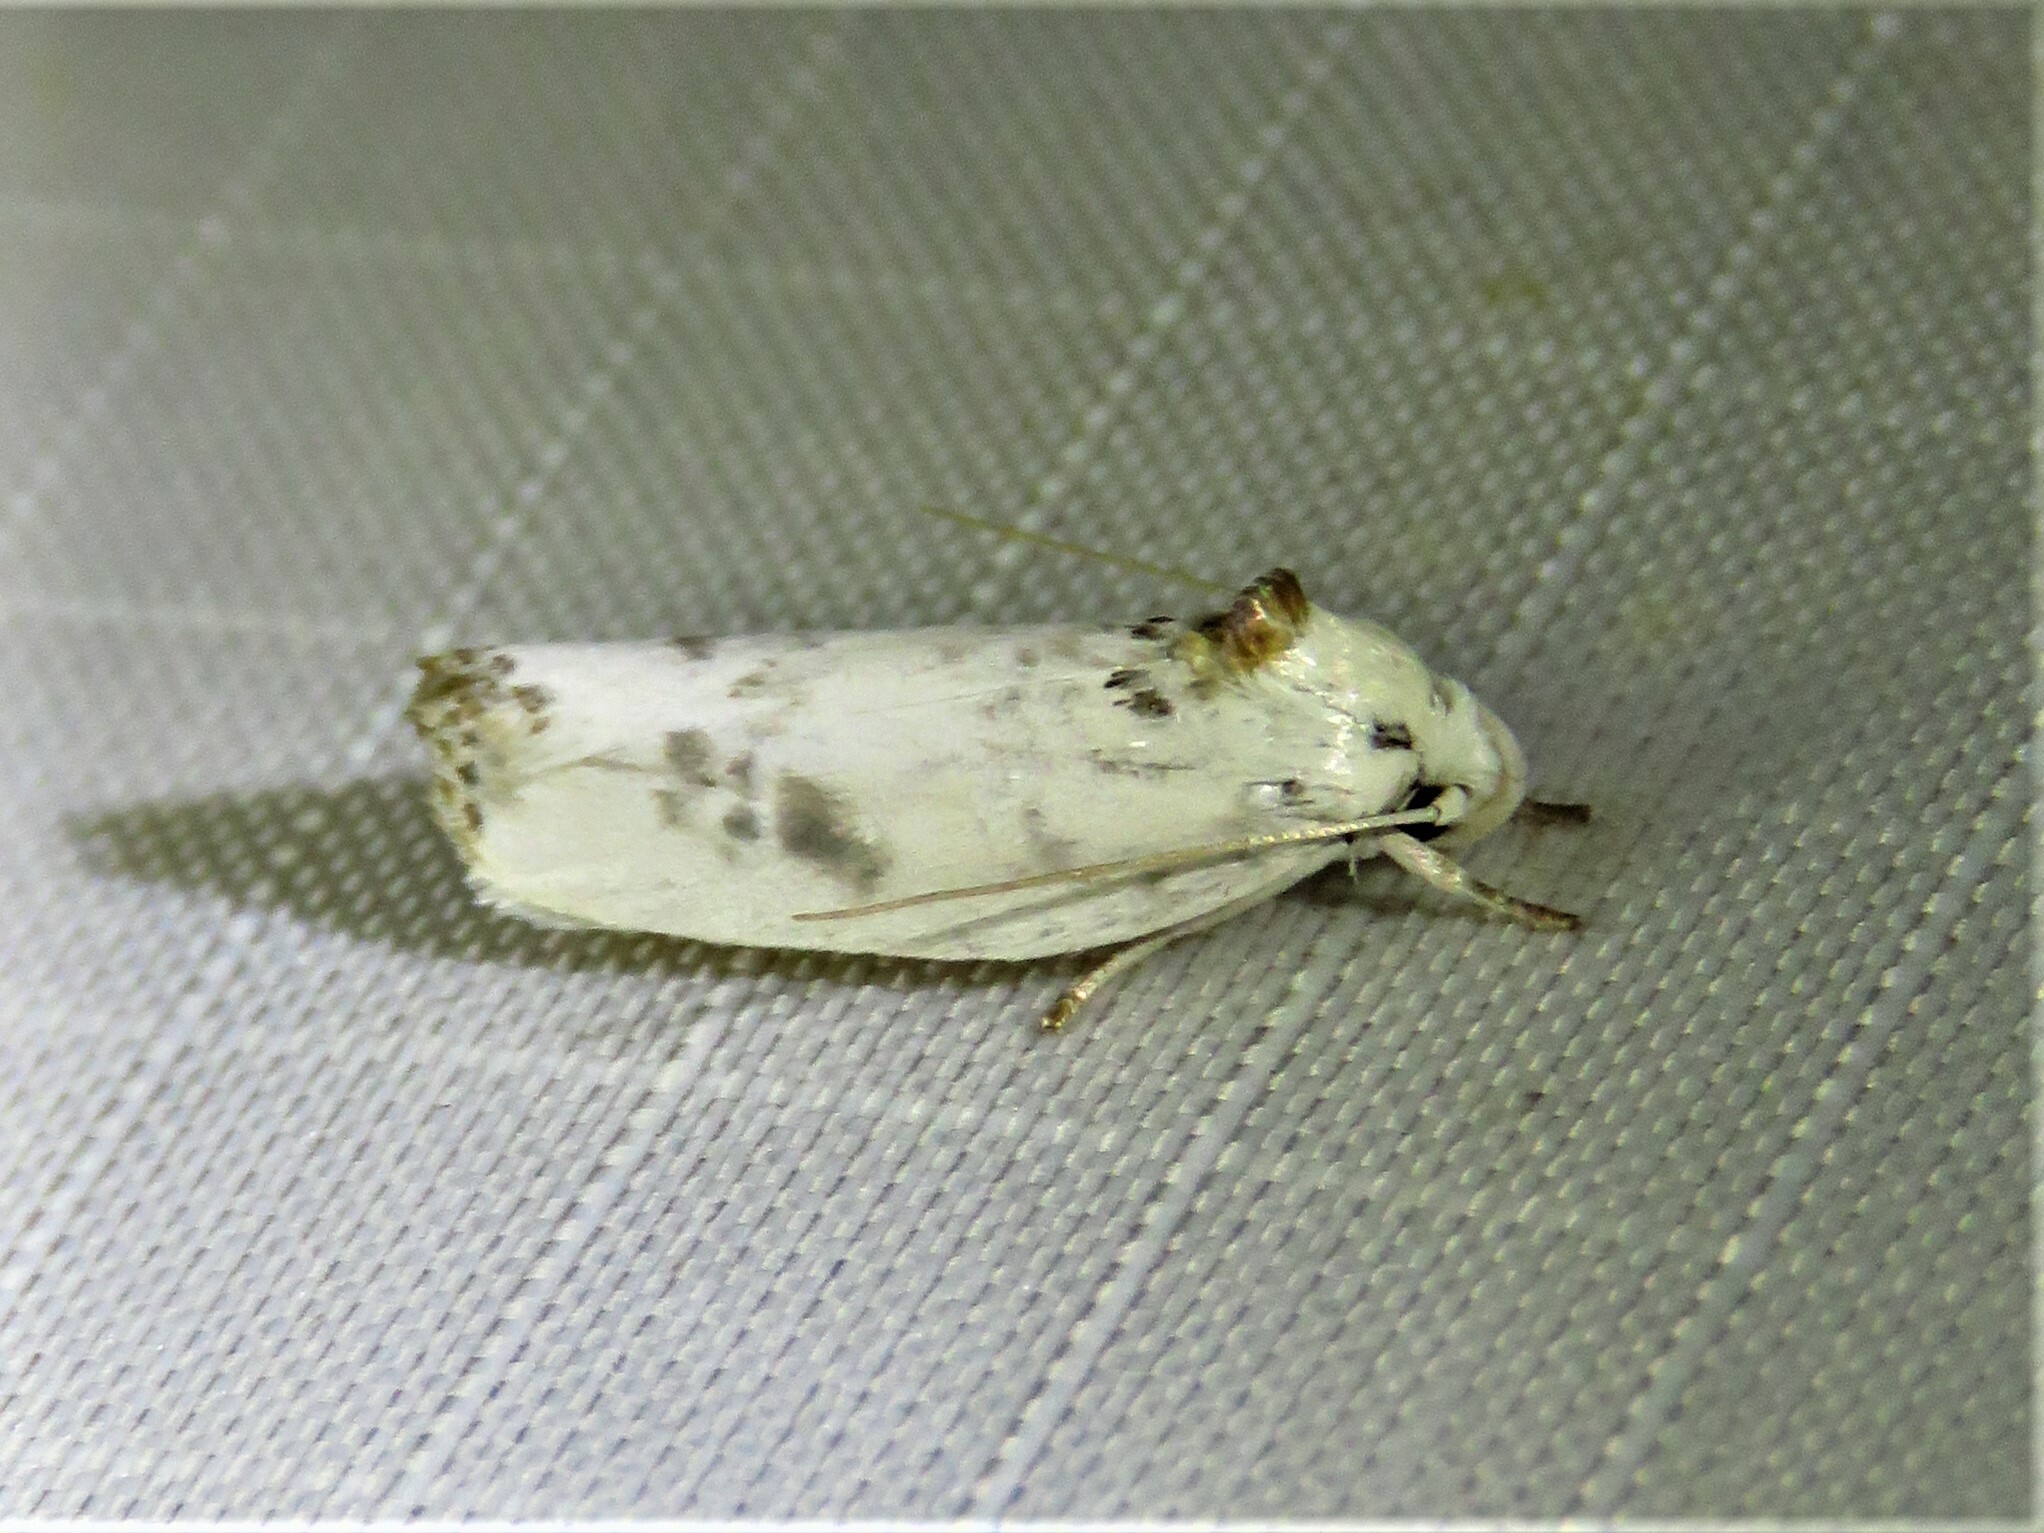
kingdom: Animalia
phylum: Arthropoda
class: Insecta
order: Lepidoptera
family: Depressariidae
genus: Antaeotricha
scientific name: Antaeotricha leucillana
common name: Pale gray bird-dropping moth
